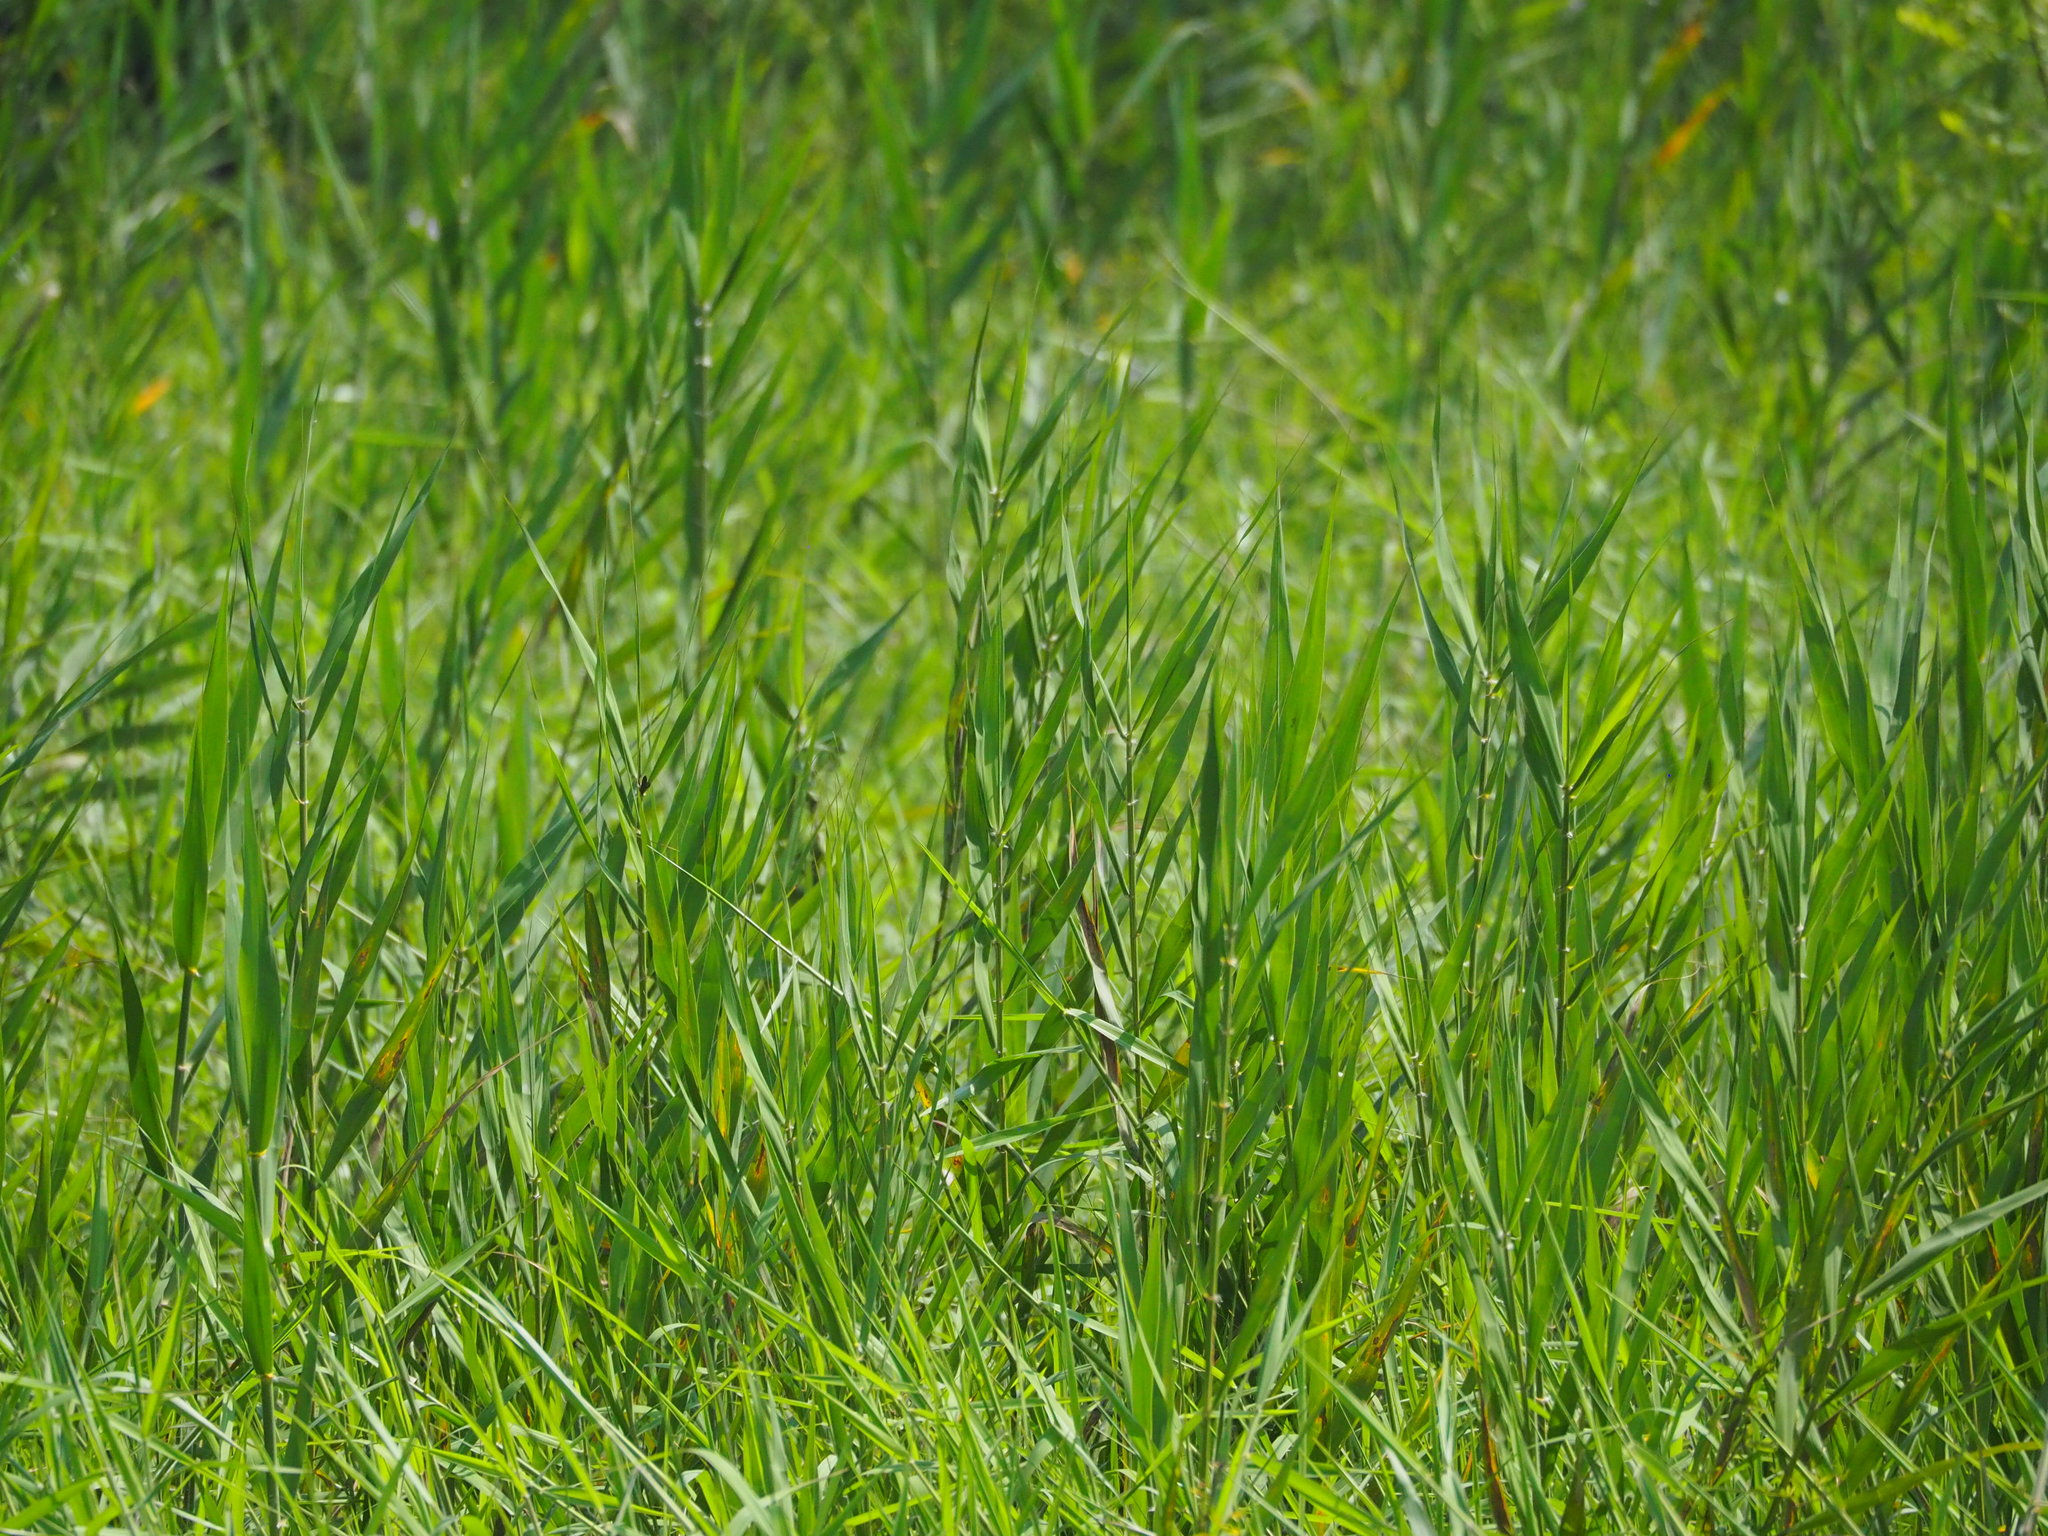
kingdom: Plantae
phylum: Tracheophyta
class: Liliopsida
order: Poales
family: Poaceae
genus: Phragmites
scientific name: Phragmites australis
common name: Common reed
